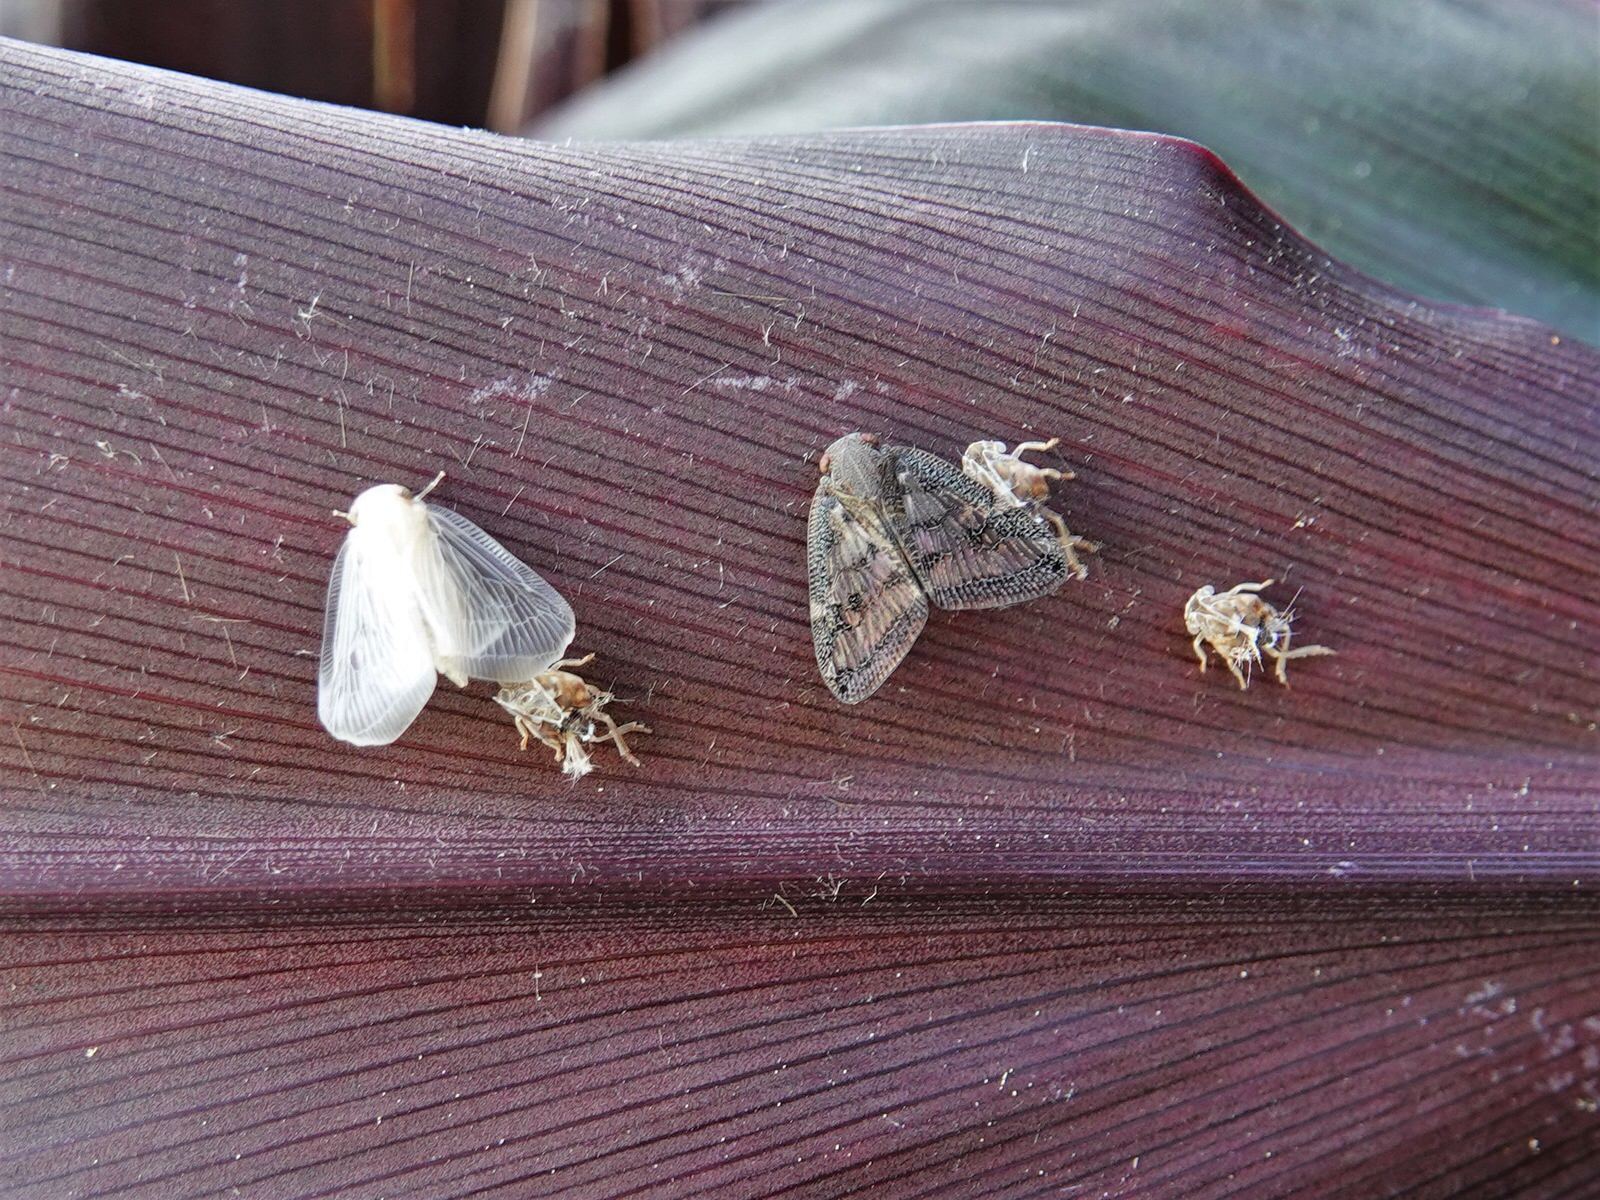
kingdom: Animalia
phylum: Arthropoda
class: Insecta
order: Hemiptera
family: Ricaniidae
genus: Scolypopa
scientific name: Scolypopa australis
